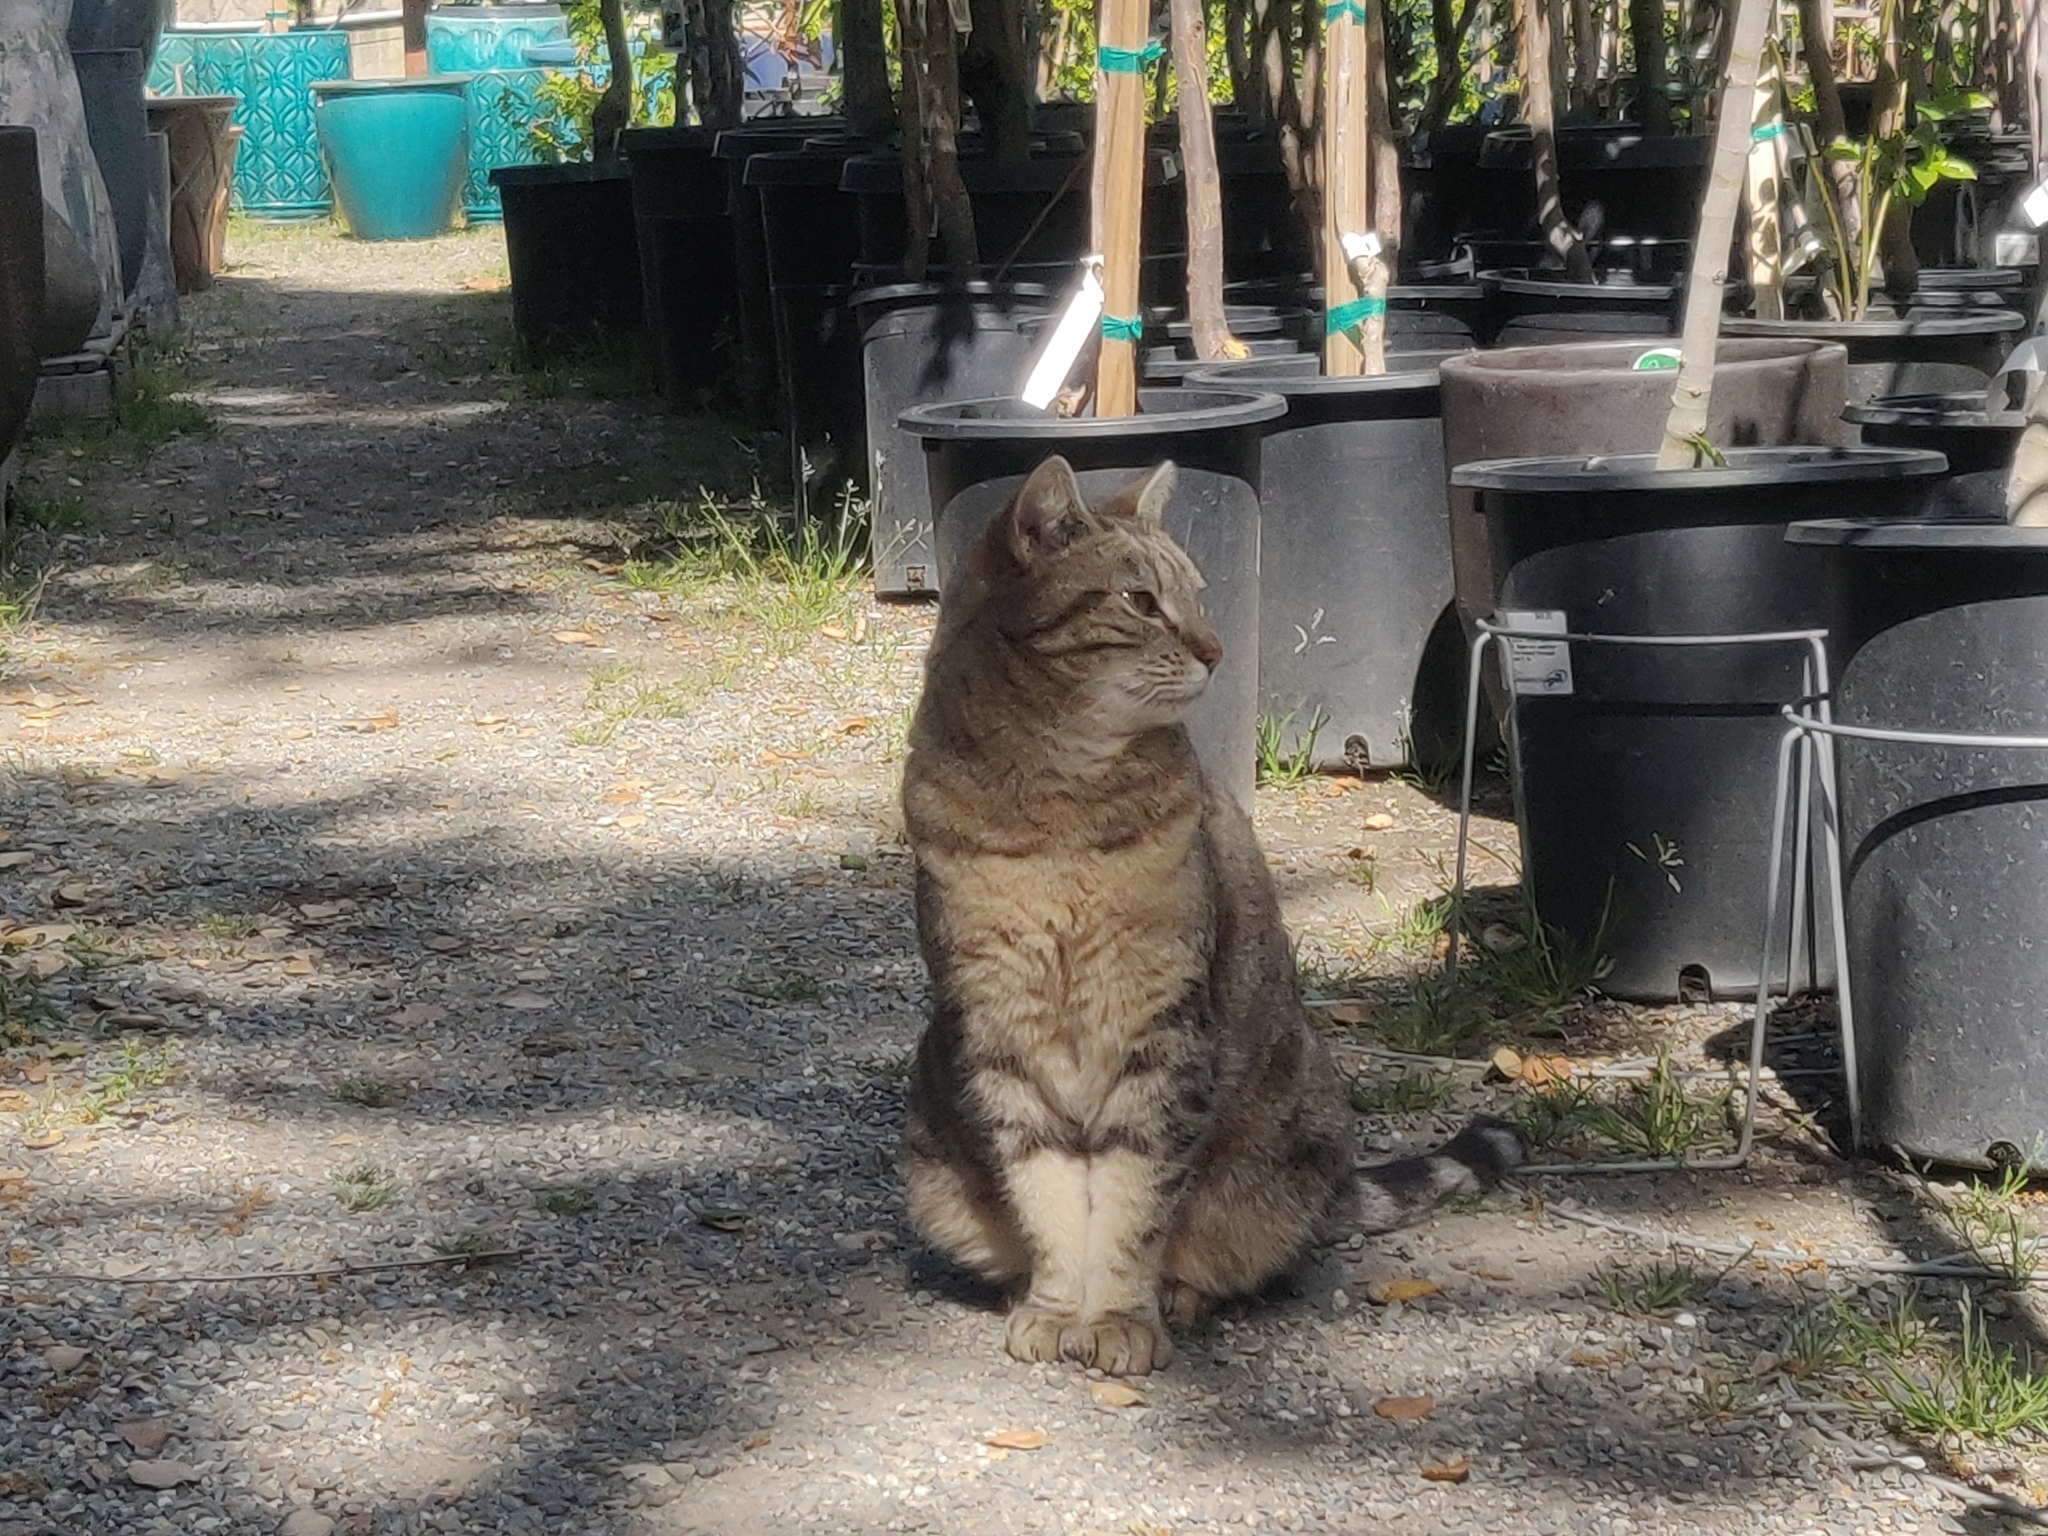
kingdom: Animalia
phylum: Chordata
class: Mammalia
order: Carnivora
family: Felidae
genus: Felis
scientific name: Felis catus
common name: Domestic cat
